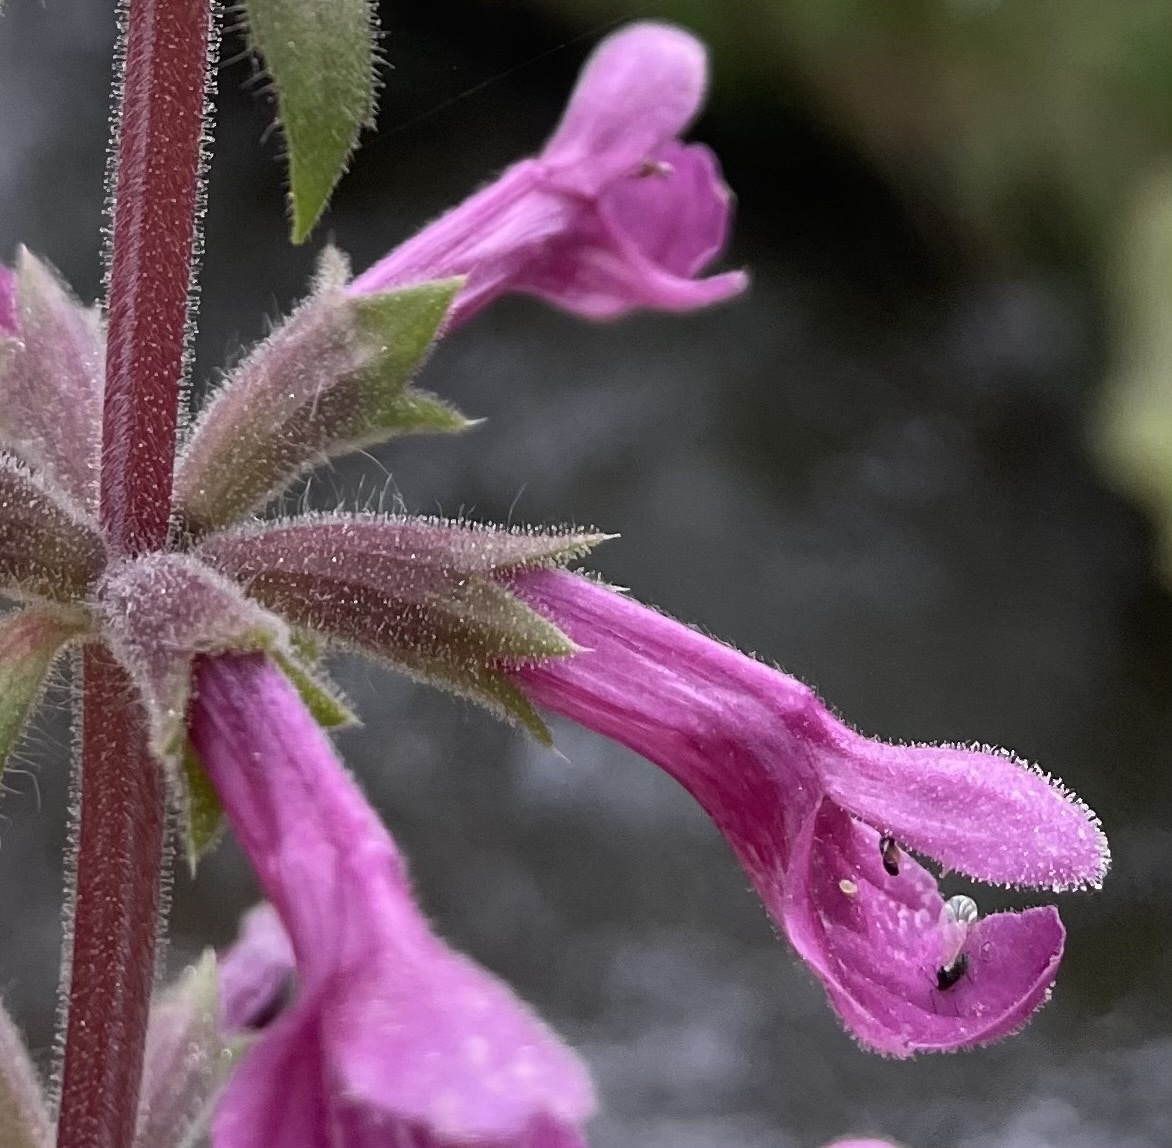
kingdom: Plantae
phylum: Tracheophyta
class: Magnoliopsida
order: Lamiales
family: Lamiaceae
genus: Stachys
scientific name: Stachys chamissonis
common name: Coastal hedge-nettle
